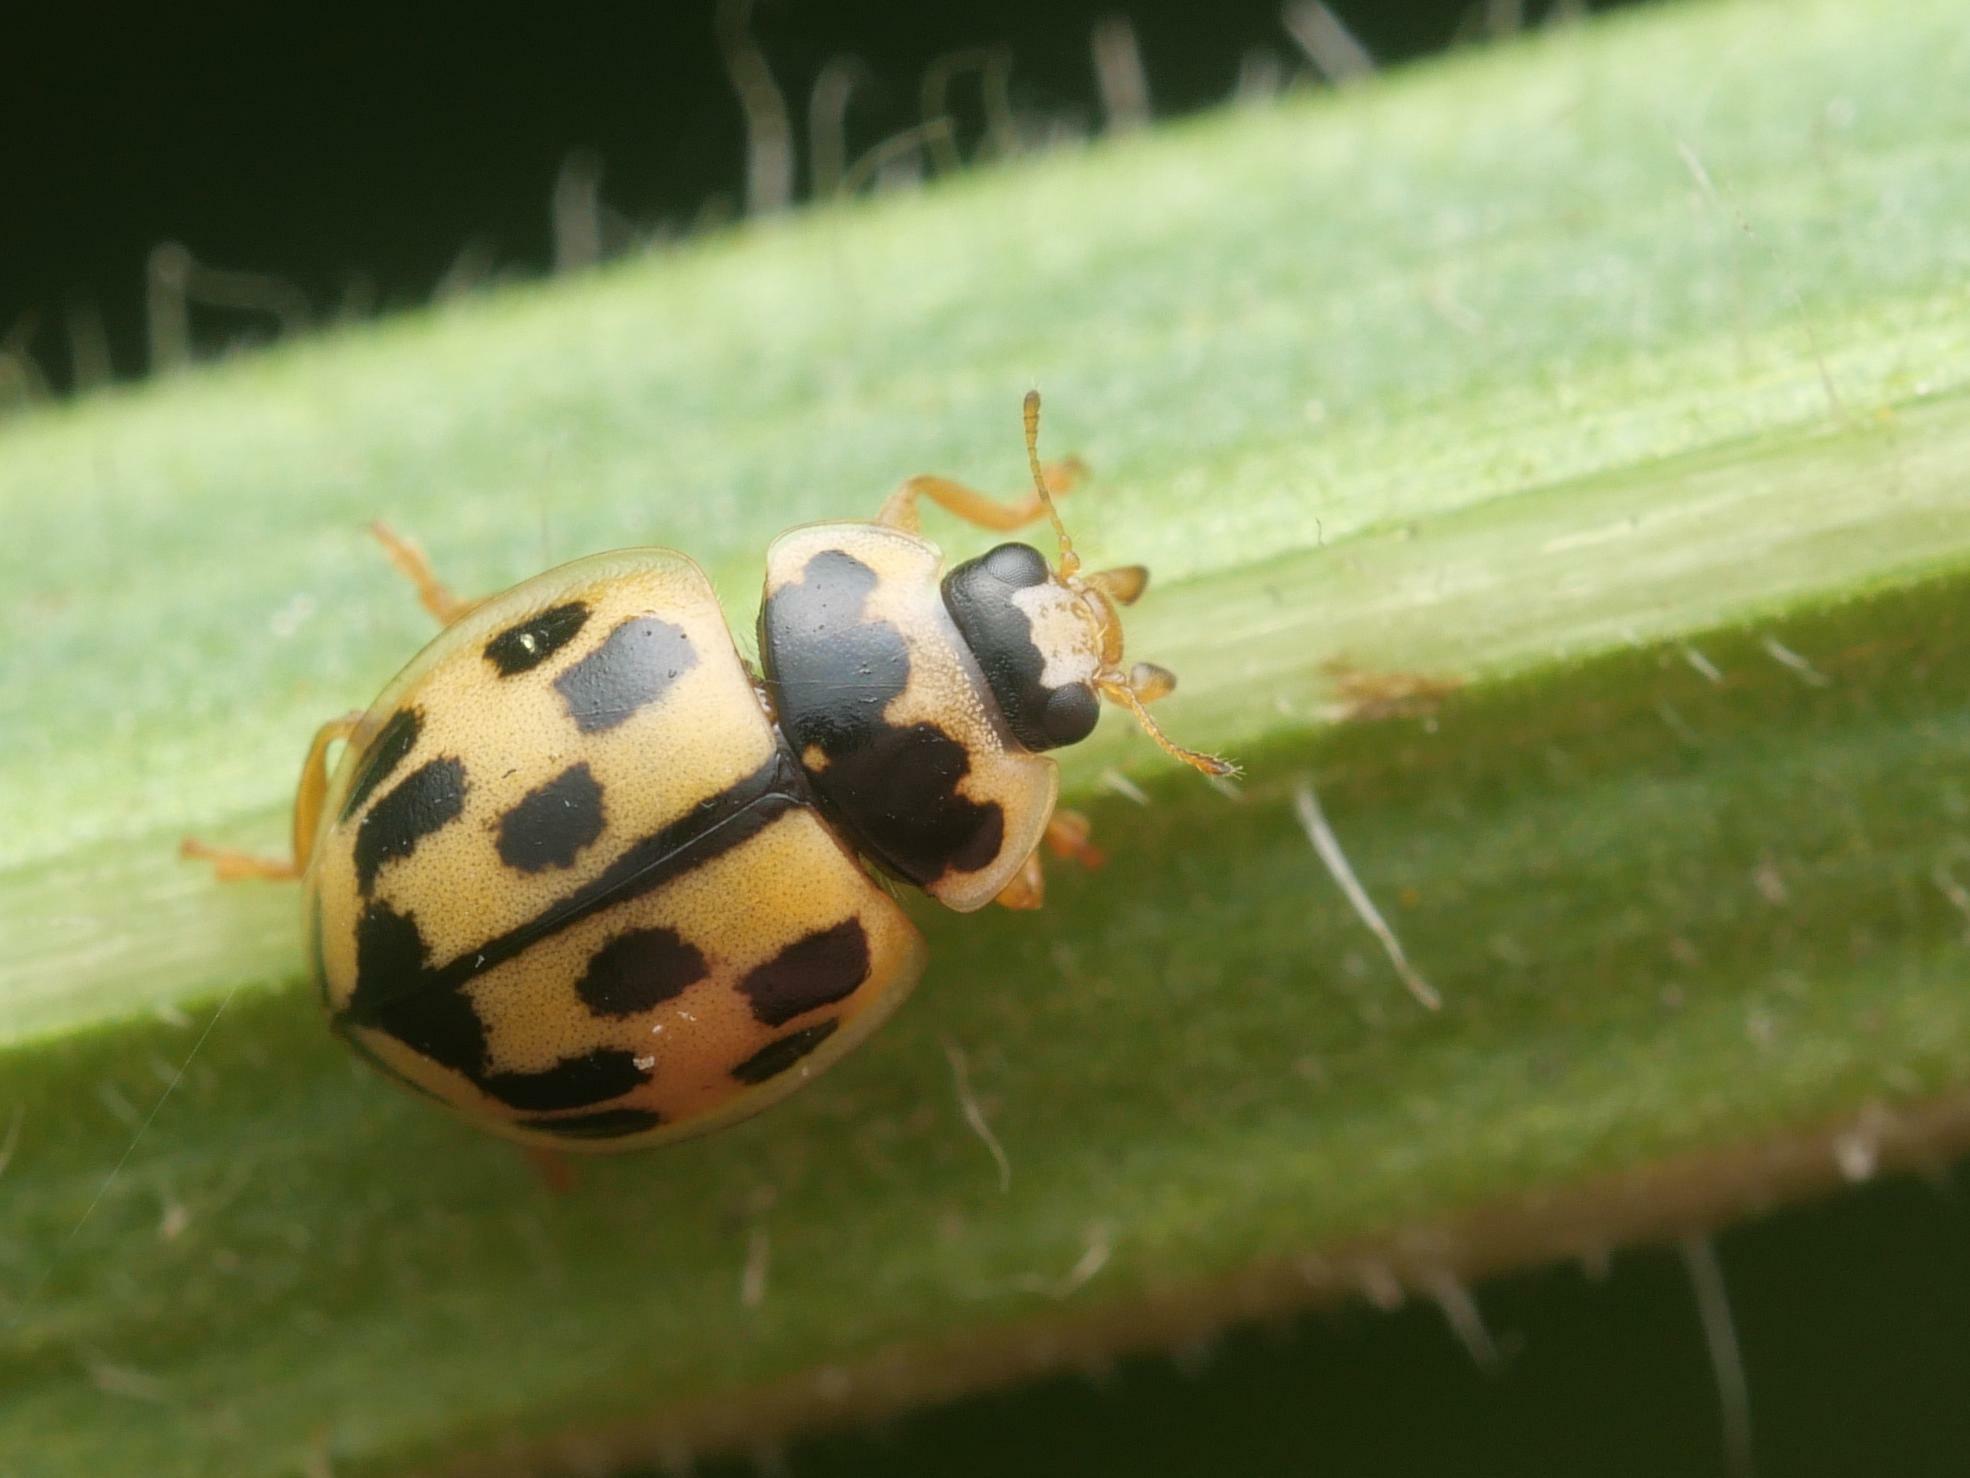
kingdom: Animalia
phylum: Arthropoda
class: Insecta
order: Coleoptera
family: Coccinellidae
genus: Propylaea
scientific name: Propylaea quatuordecimpunctata
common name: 14-spotted ladybird beetle
